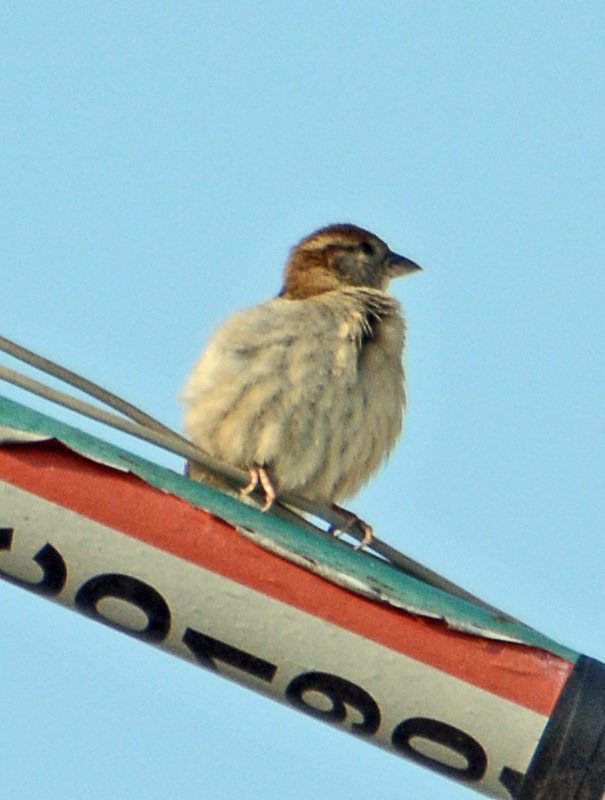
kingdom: Animalia
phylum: Chordata
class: Aves
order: Passeriformes
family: Passeridae
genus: Passer
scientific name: Passer domesticus
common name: House sparrow
